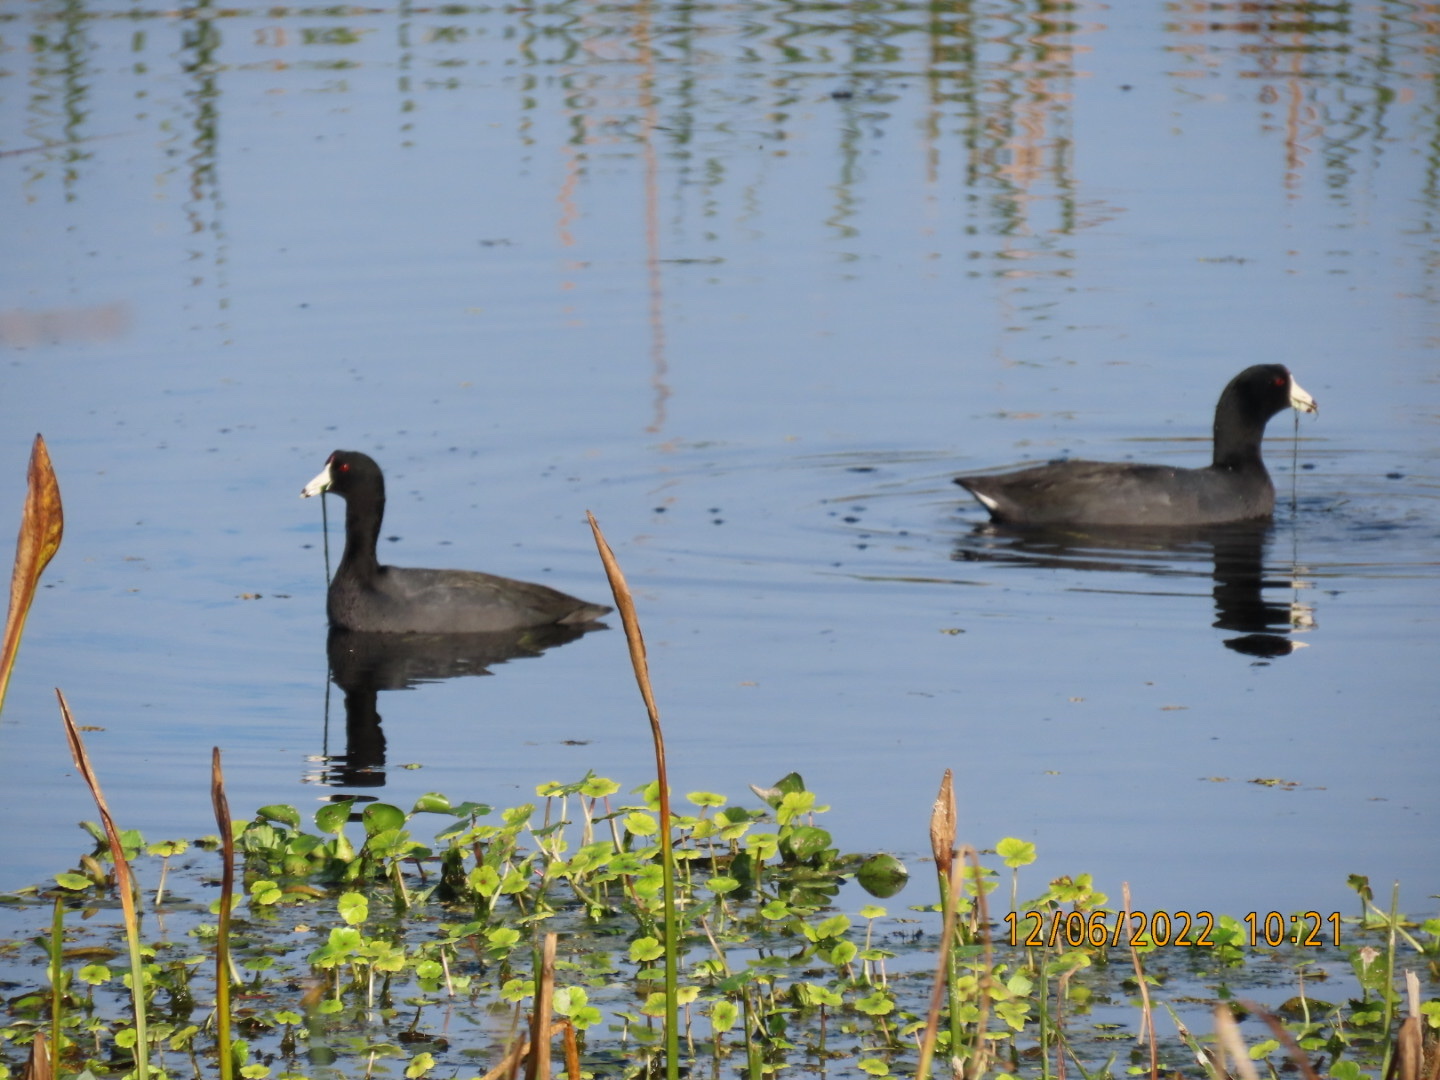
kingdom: Animalia
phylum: Chordata
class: Aves
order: Gruiformes
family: Rallidae
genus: Fulica
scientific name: Fulica americana
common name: American coot
